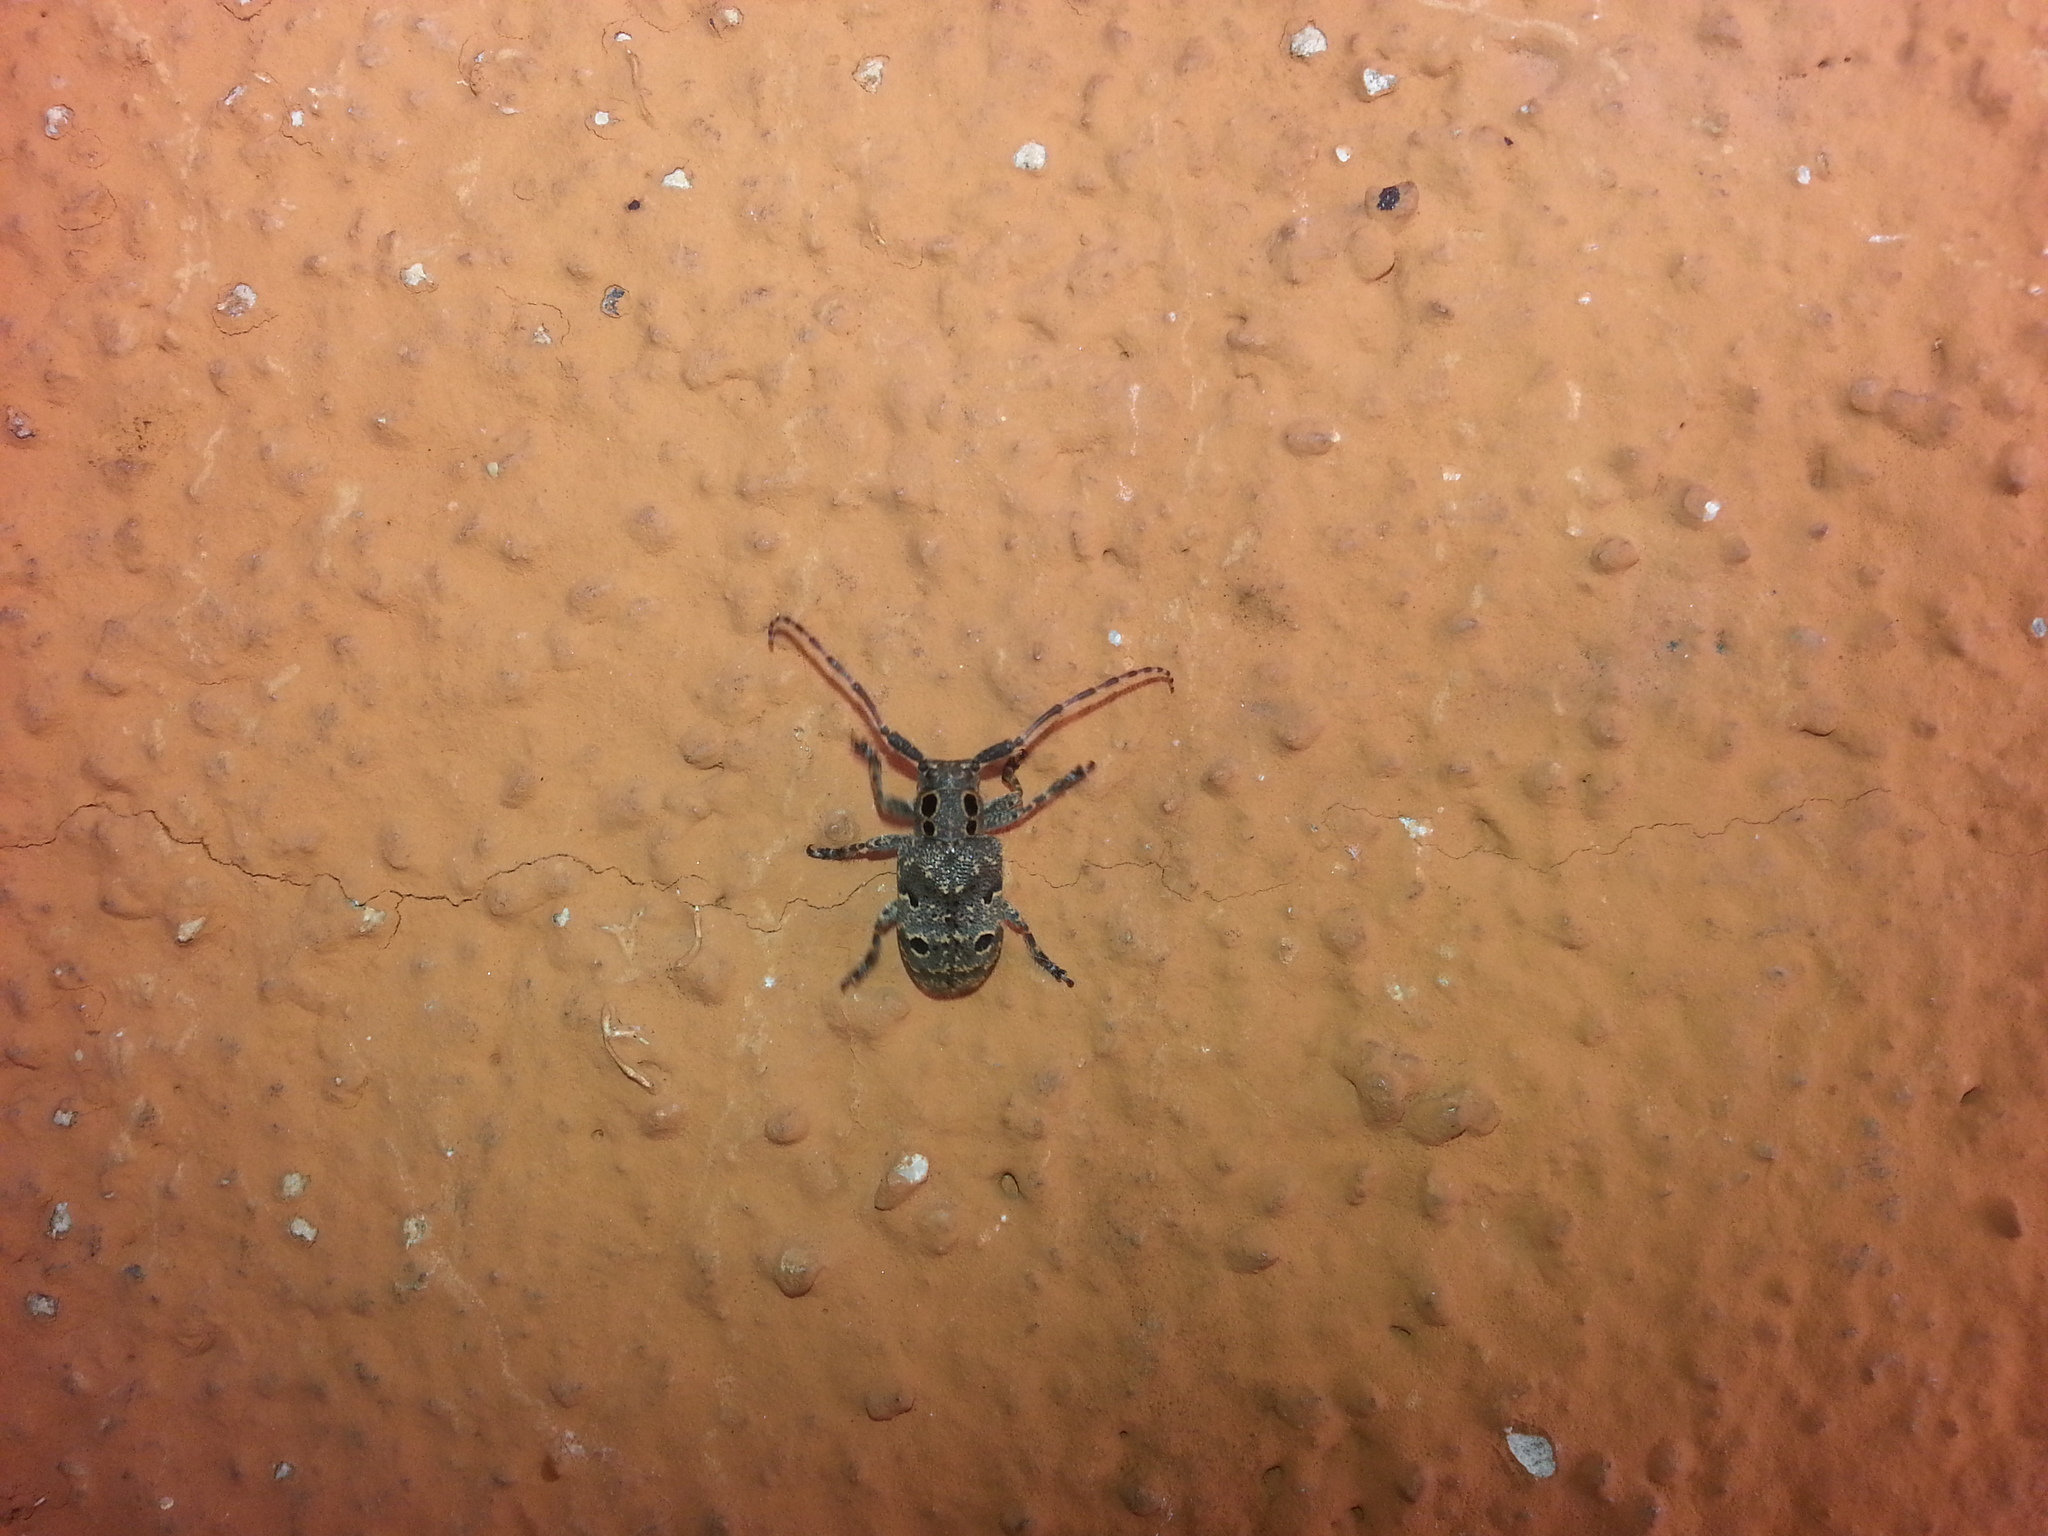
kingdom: Animalia
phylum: Arthropoda
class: Insecta
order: Coleoptera
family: Cerambycidae
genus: Mesosa
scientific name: Mesosa curculionoides
